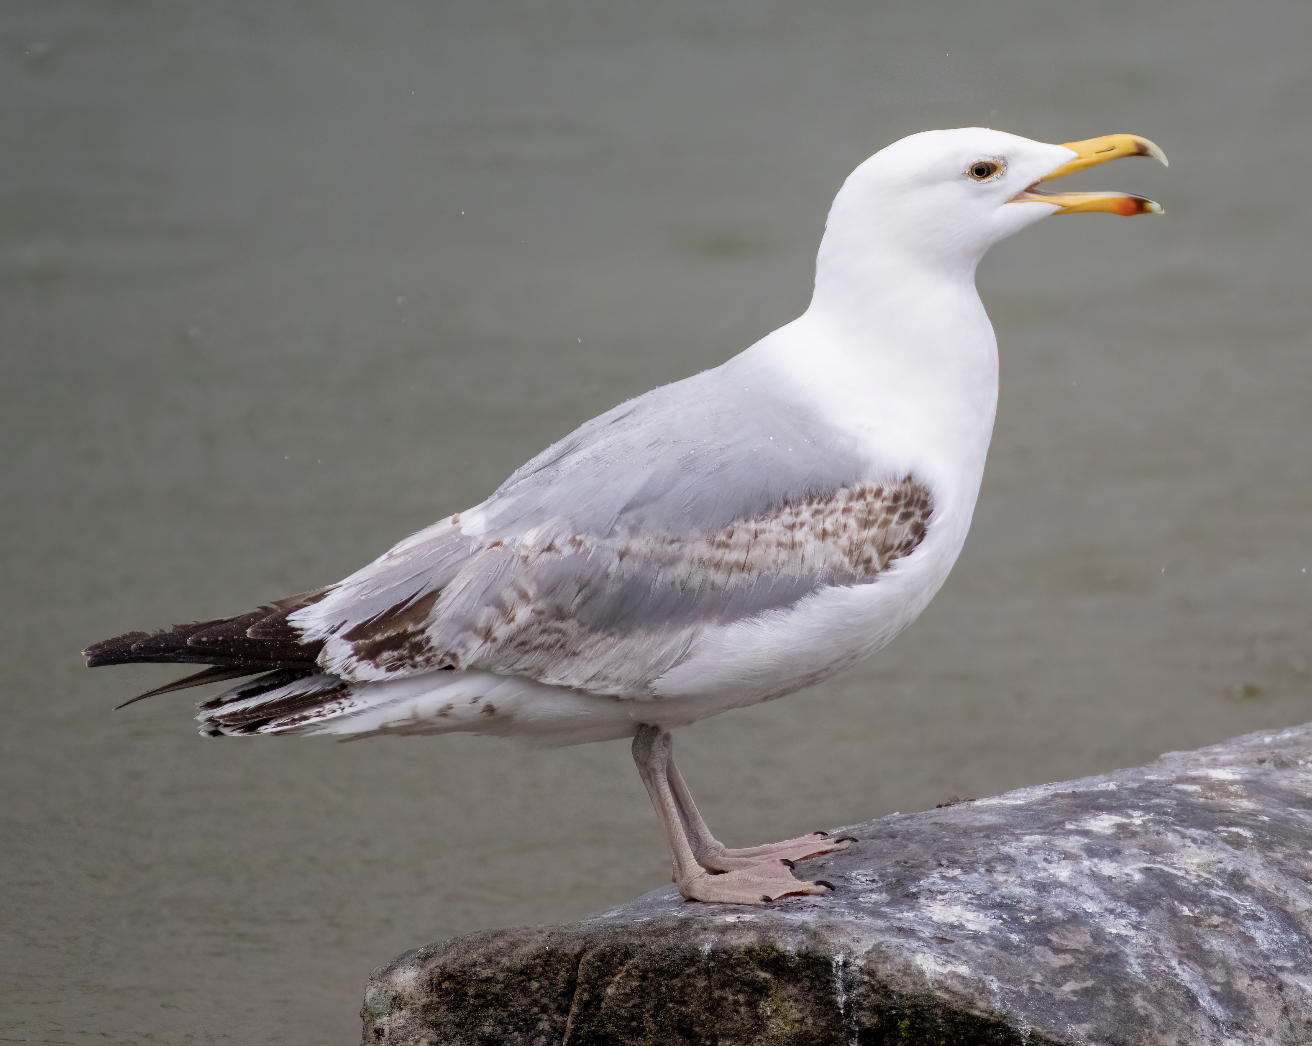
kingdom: Animalia
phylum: Chordata
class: Aves
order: Charadriiformes
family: Laridae
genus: Larus
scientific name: Larus argentatus
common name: Herring gull
